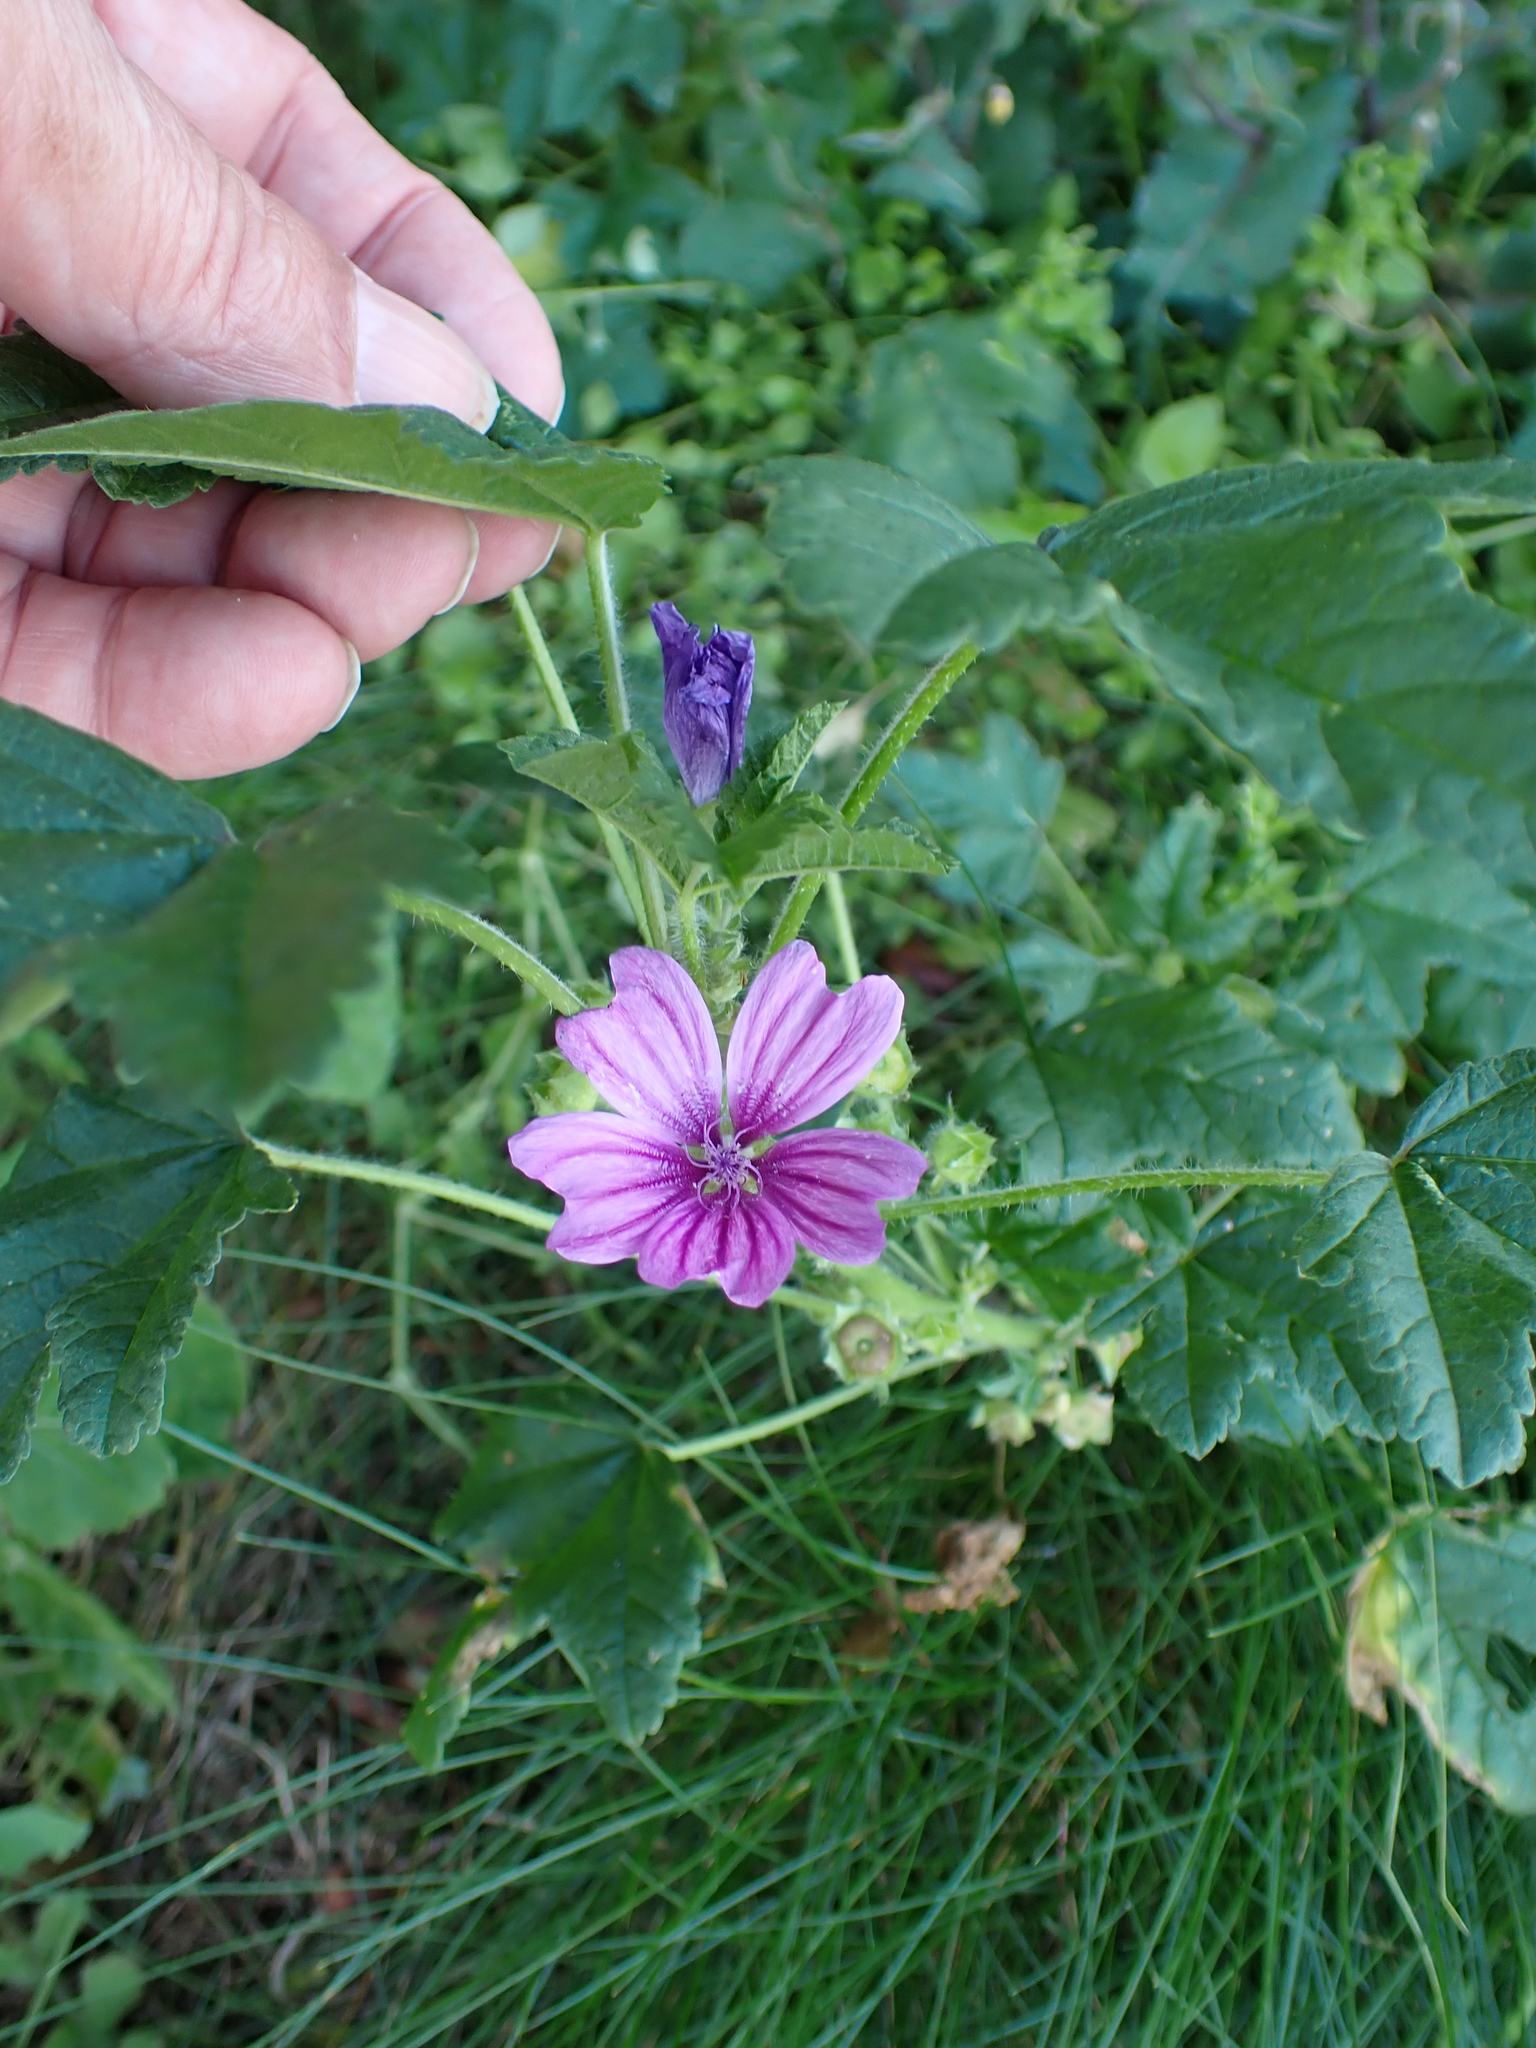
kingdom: Plantae
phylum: Tracheophyta
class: Magnoliopsida
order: Malvales
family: Malvaceae
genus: Malva
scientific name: Malva sylvestris
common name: Common mallow
